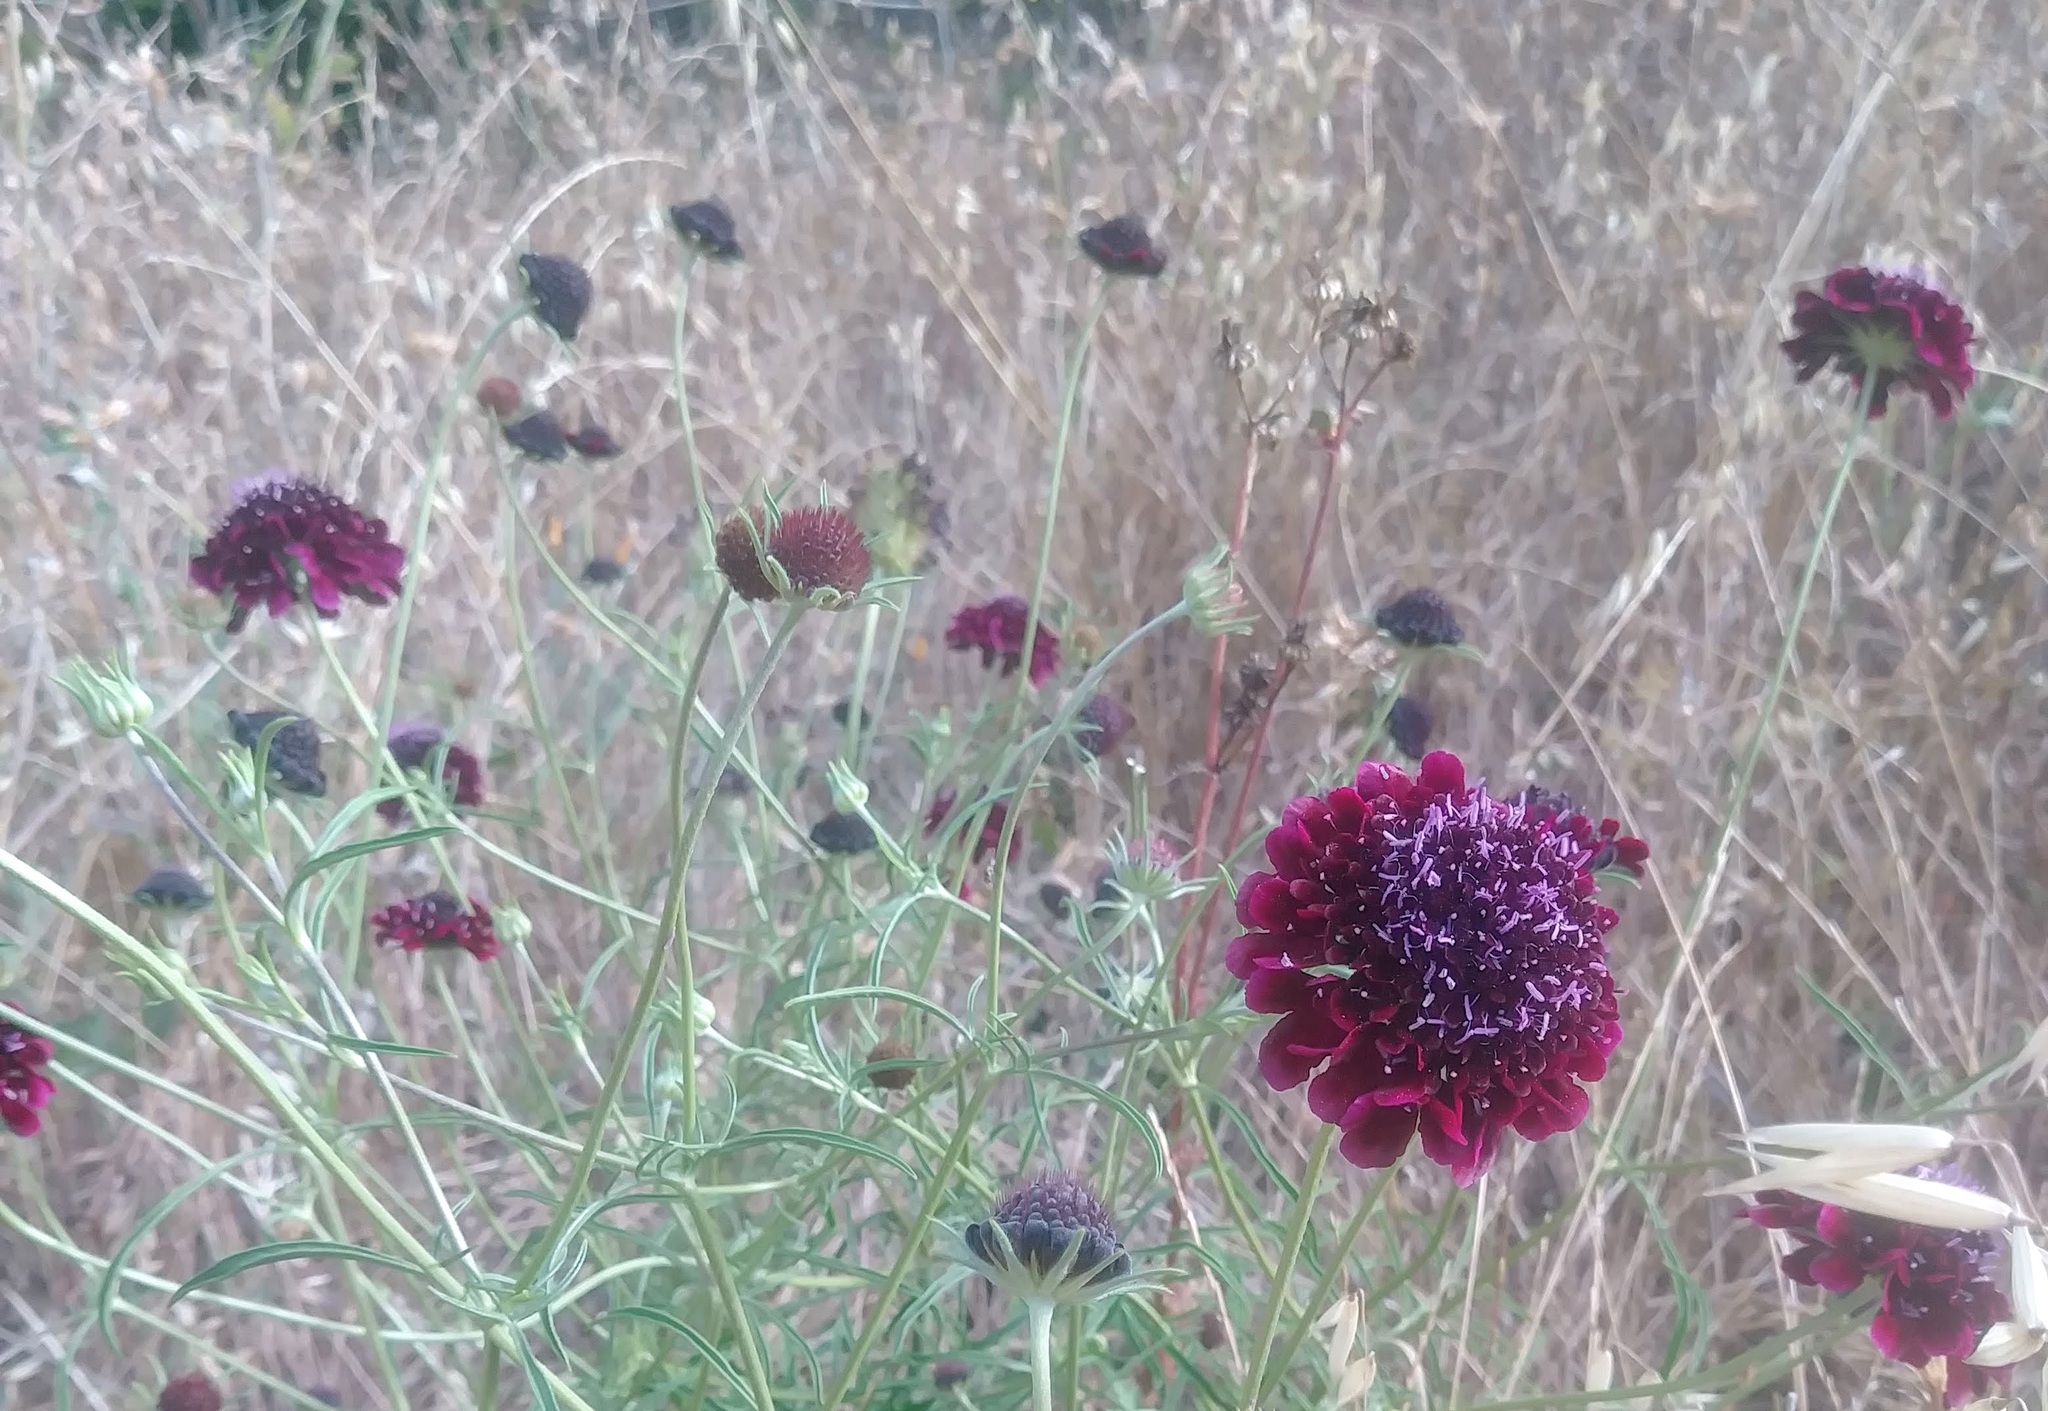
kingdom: Plantae
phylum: Tracheophyta
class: Magnoliopsida
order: Dipsacales
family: Caprifoliaceae
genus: Sixalix
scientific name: Sixalix atropurpurea
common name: Sweet scabious
